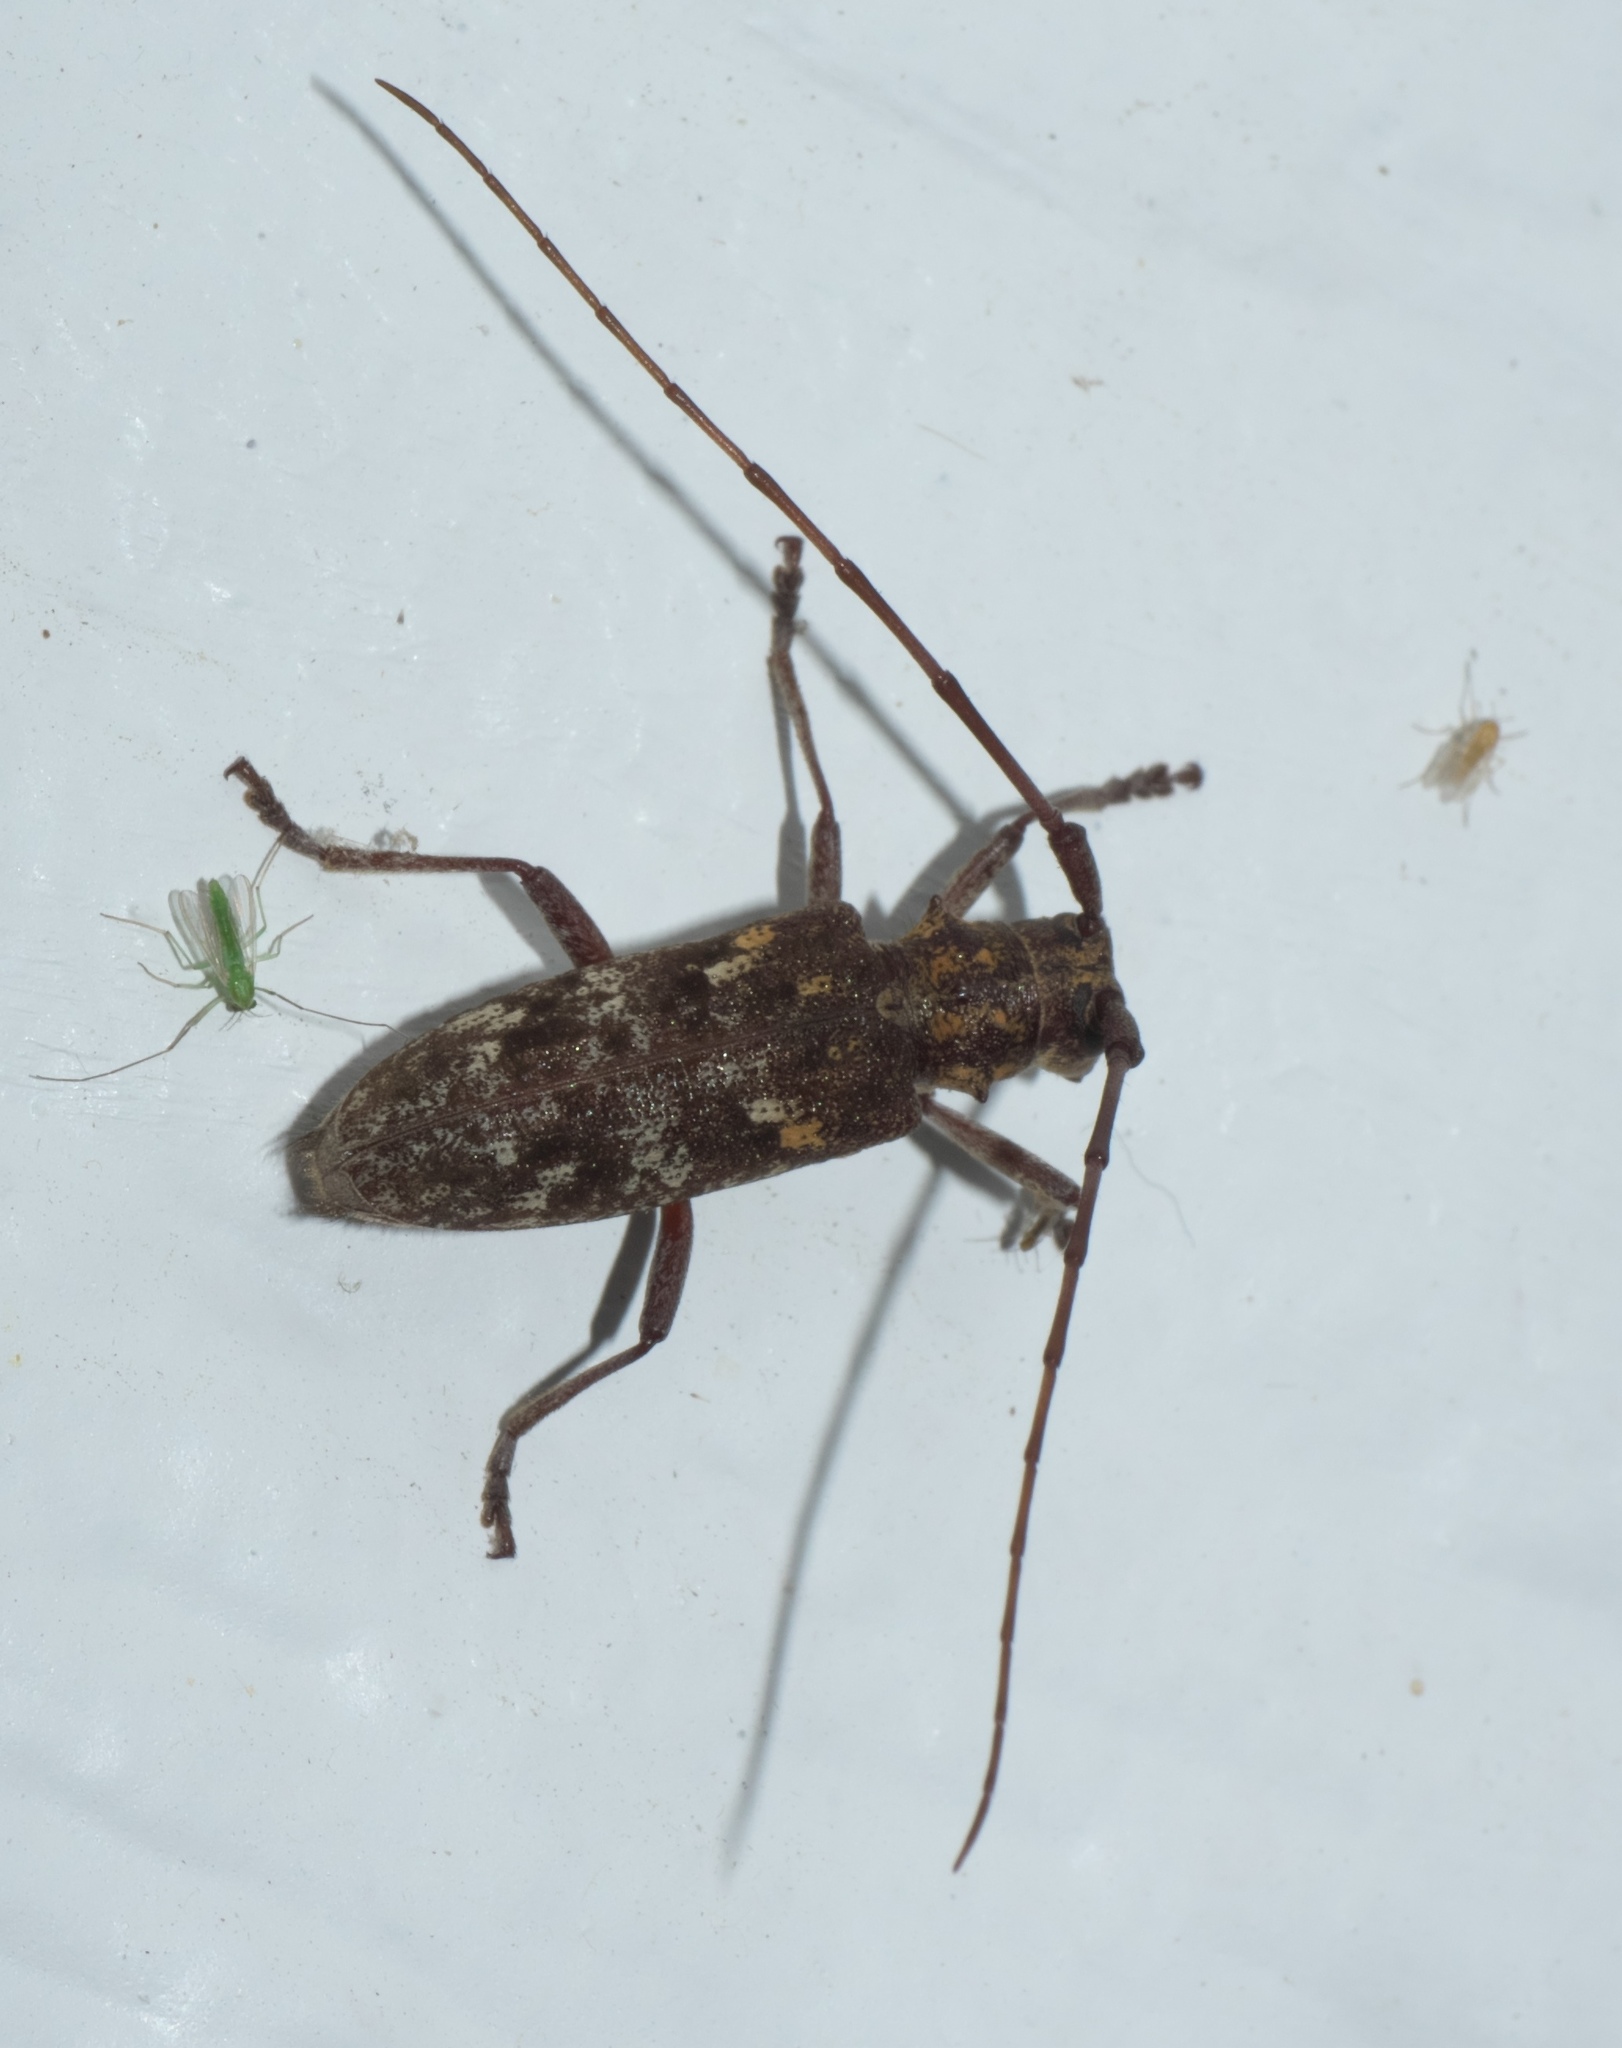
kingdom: Animalia
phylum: Arthropoda
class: Insecta
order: Coleoptera
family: Cerambycidae
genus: Monochamus
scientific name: Monochamus carolinensis
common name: Carolina pine sawyer
